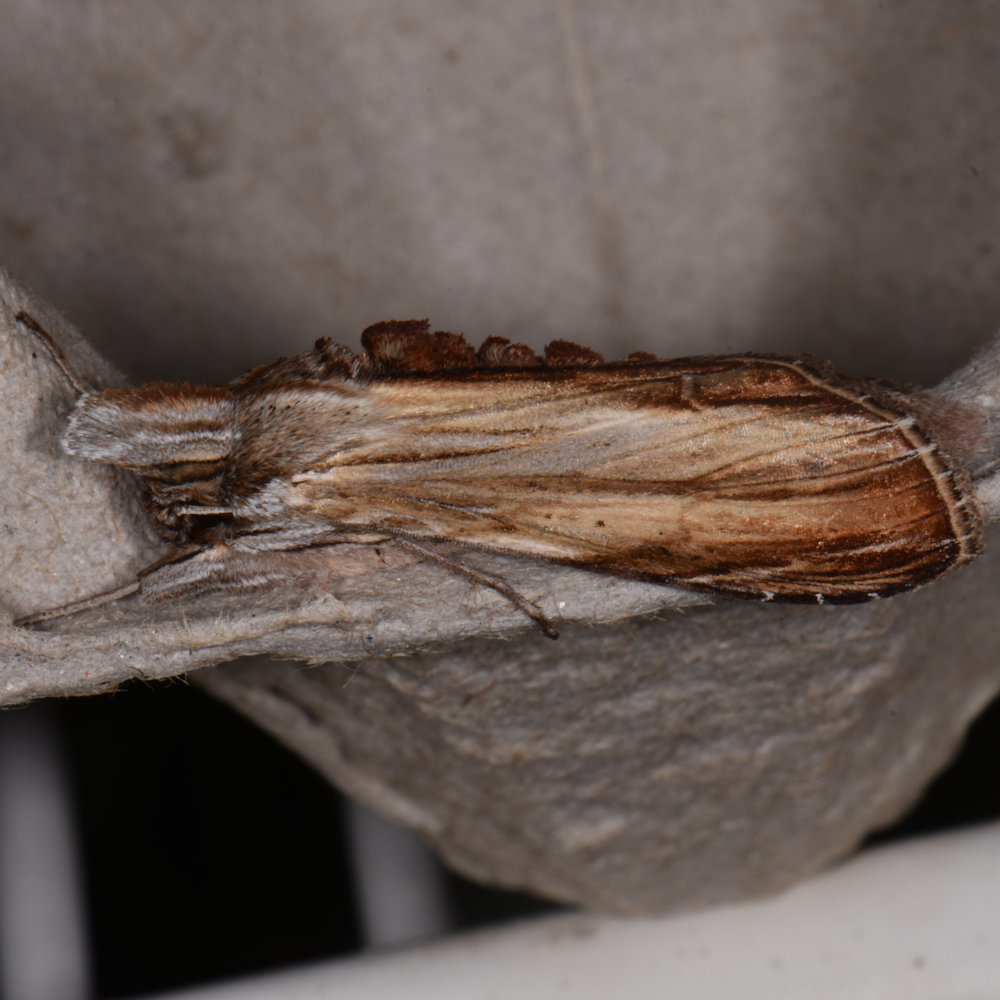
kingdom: Animalia
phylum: Arthropoda
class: Insecta
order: Lepidoptera
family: Noctuidae
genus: Cucullia
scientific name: Cucullia convexipennis
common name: Brown-hooded owlet
